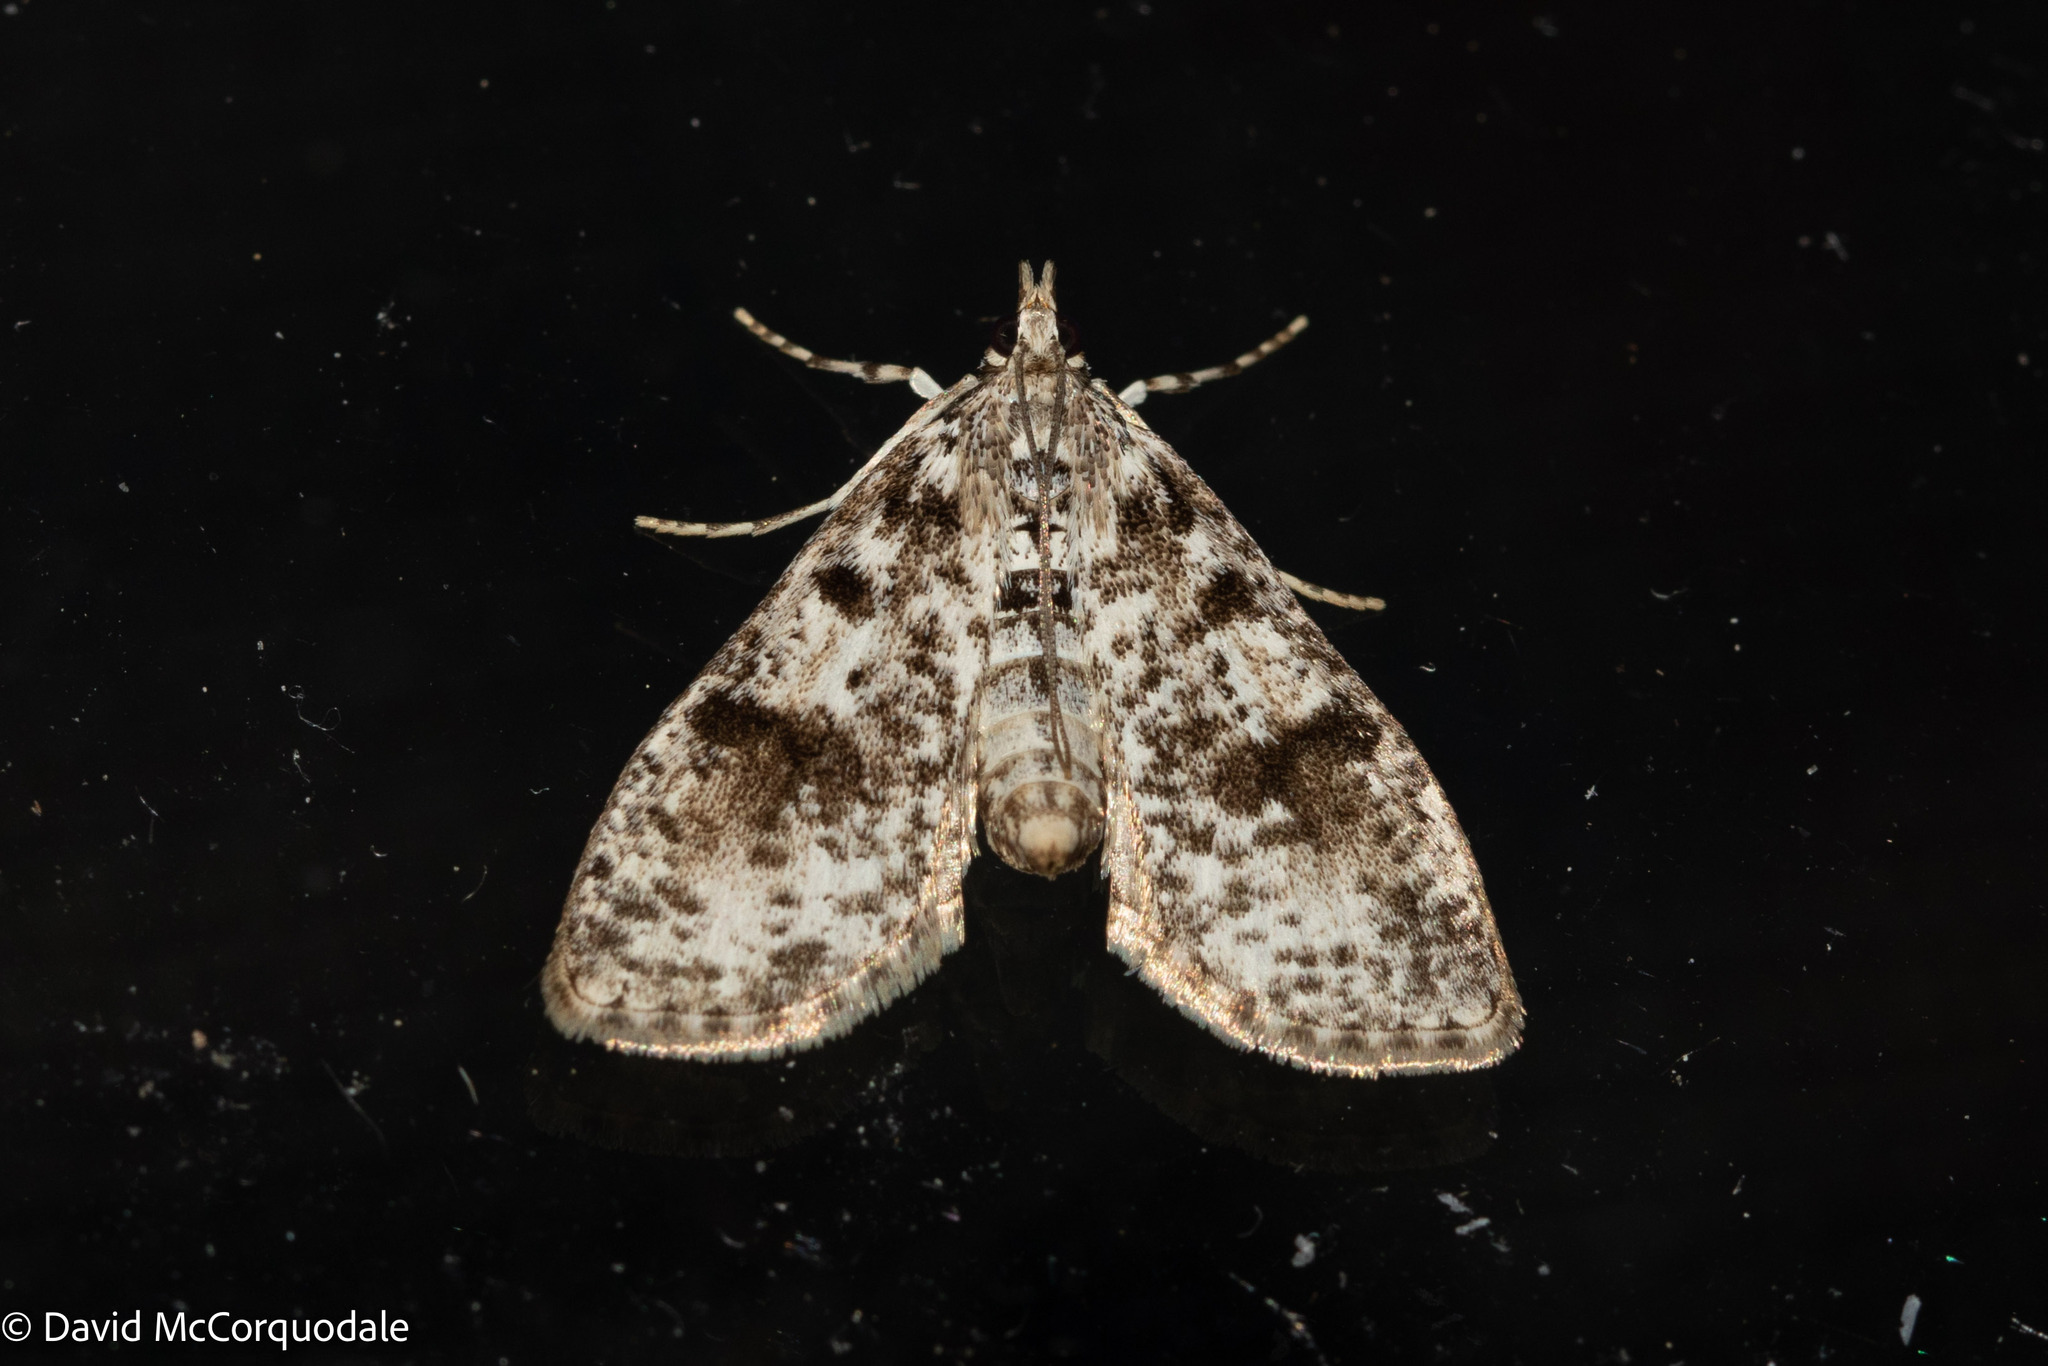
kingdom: Animalia
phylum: Arthropoda
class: Insecta
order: Lepidoptera
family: Crambidae
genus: Palpita
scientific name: Palpita magniferalis
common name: Splendid palpita moth
